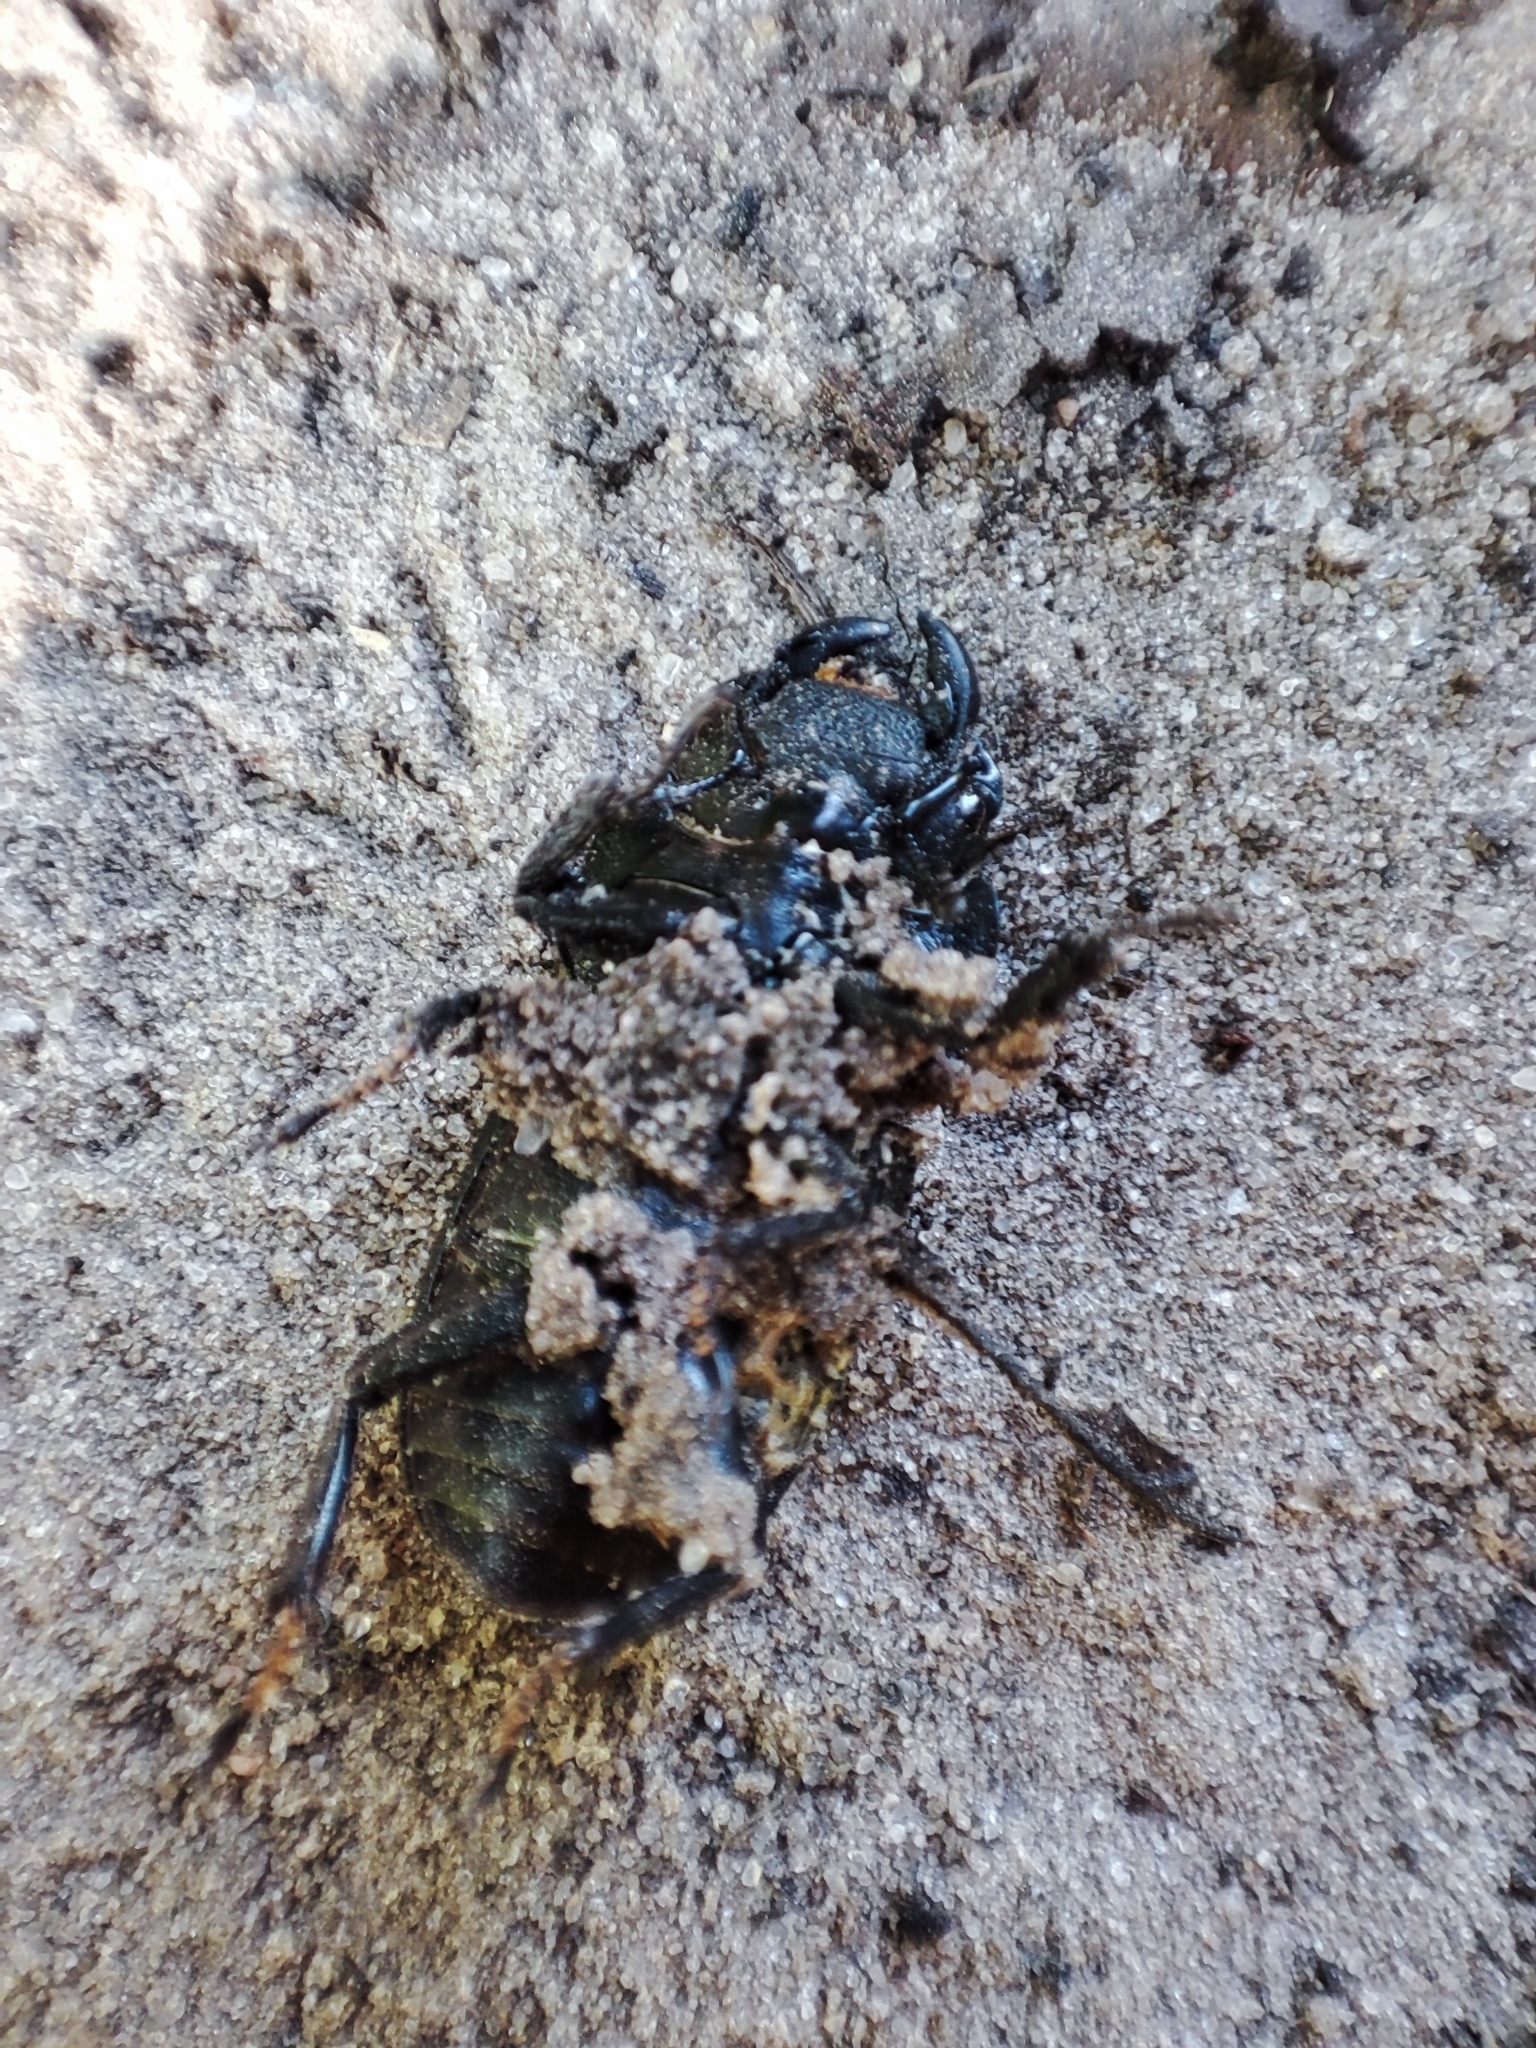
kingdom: Animalia
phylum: Arthropoda
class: Insecta
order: Coleoptera
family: Lucanidae
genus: Dorcus
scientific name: Dorcus parallelipipedus
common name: Lesser stag beetle
